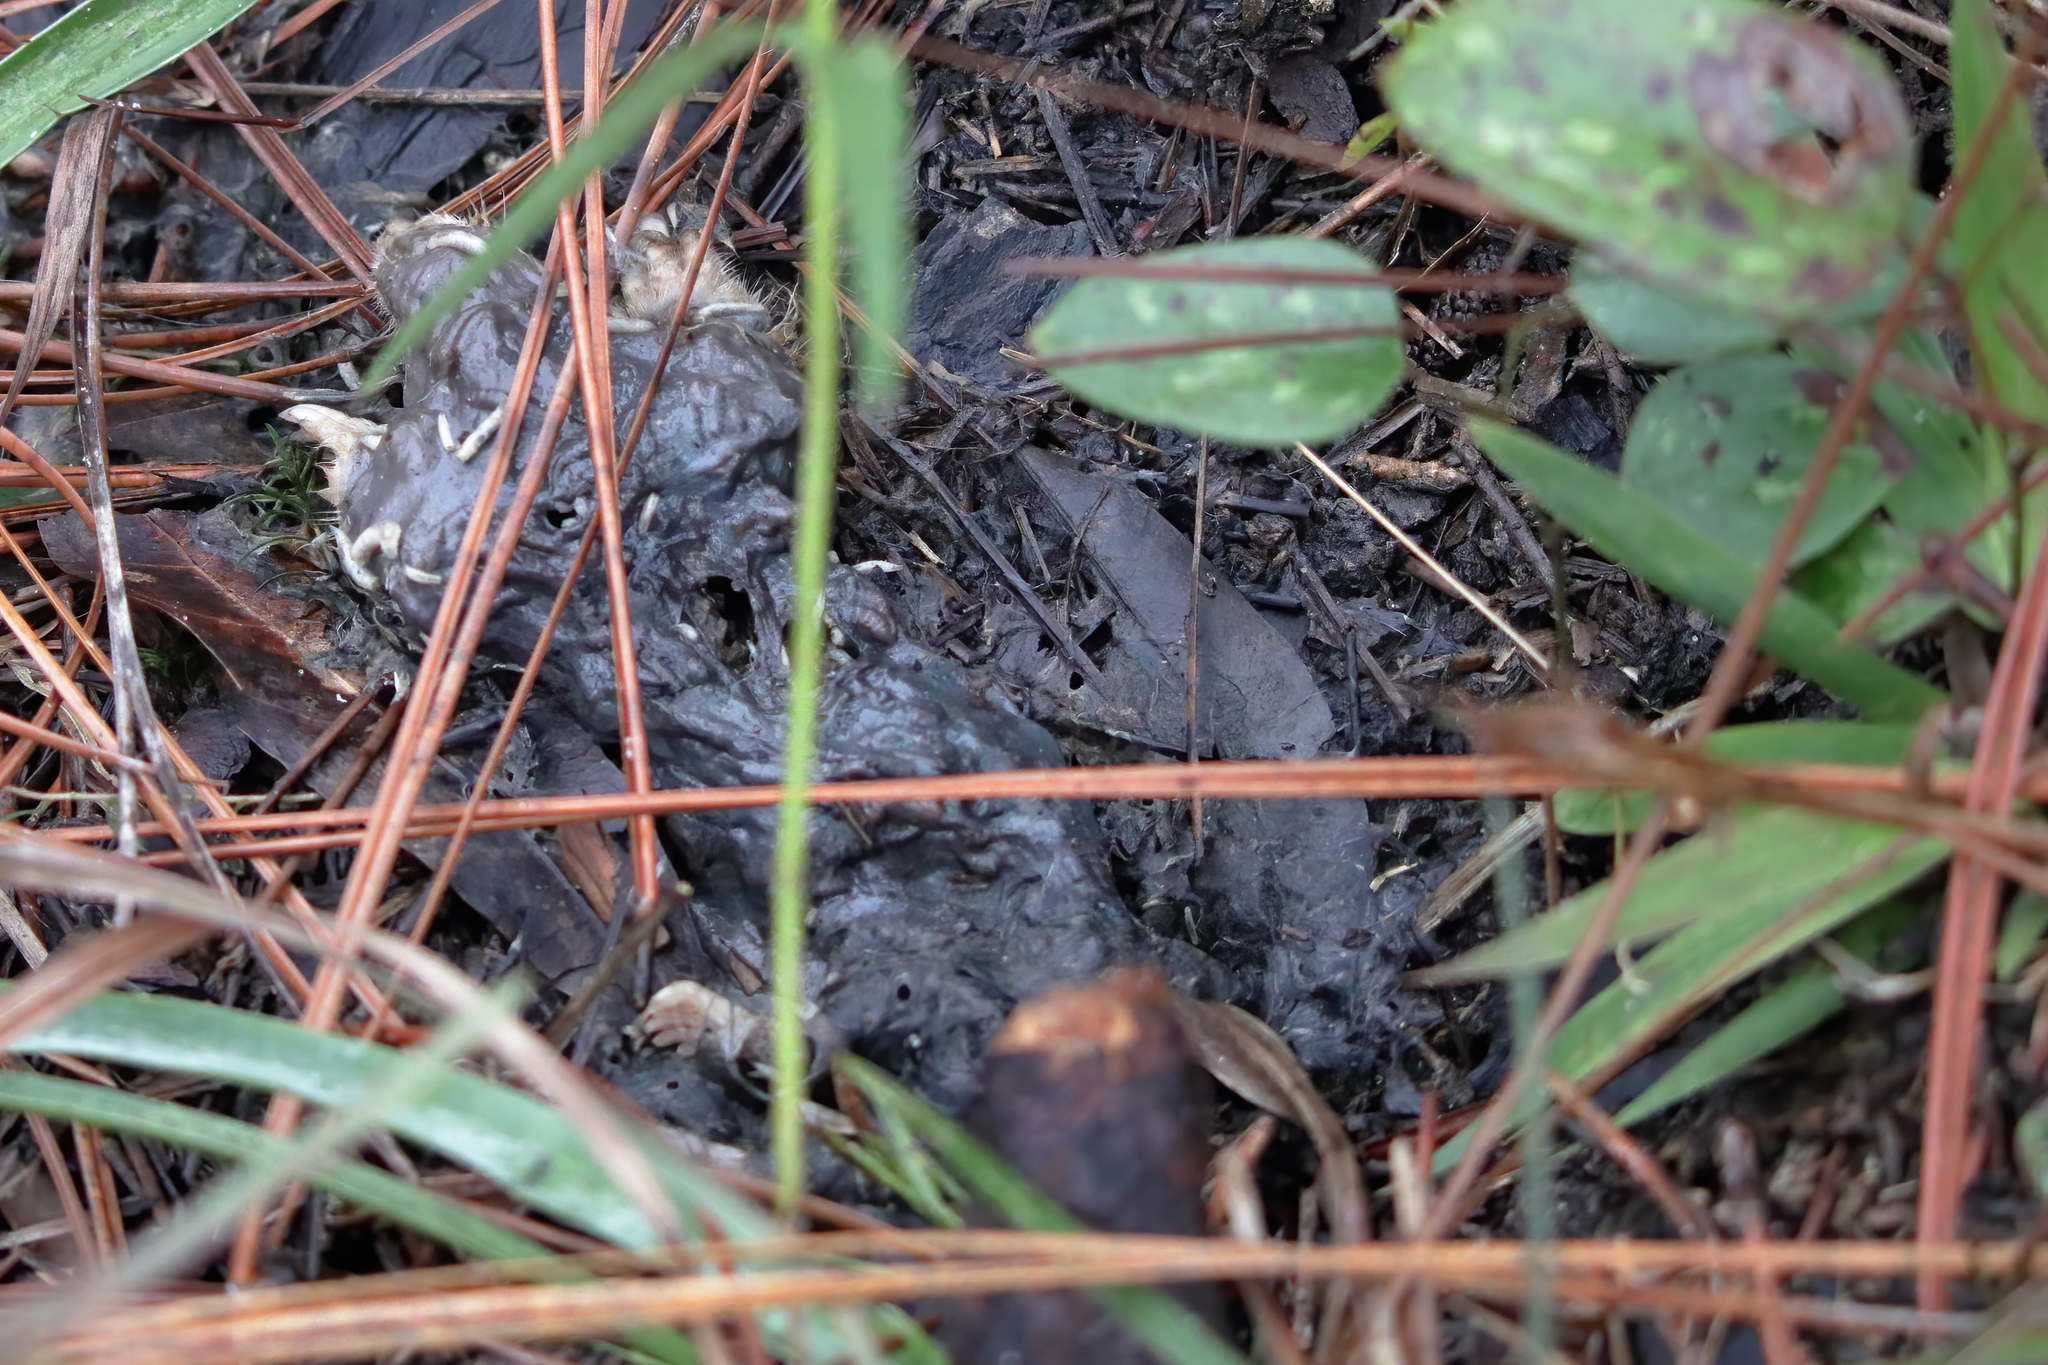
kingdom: Animalia
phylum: Chordata
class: Mammalia
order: Soricomorpha
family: Talpidae
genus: Scalopus
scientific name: Scalopus aquaticus
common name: Eastern mole
